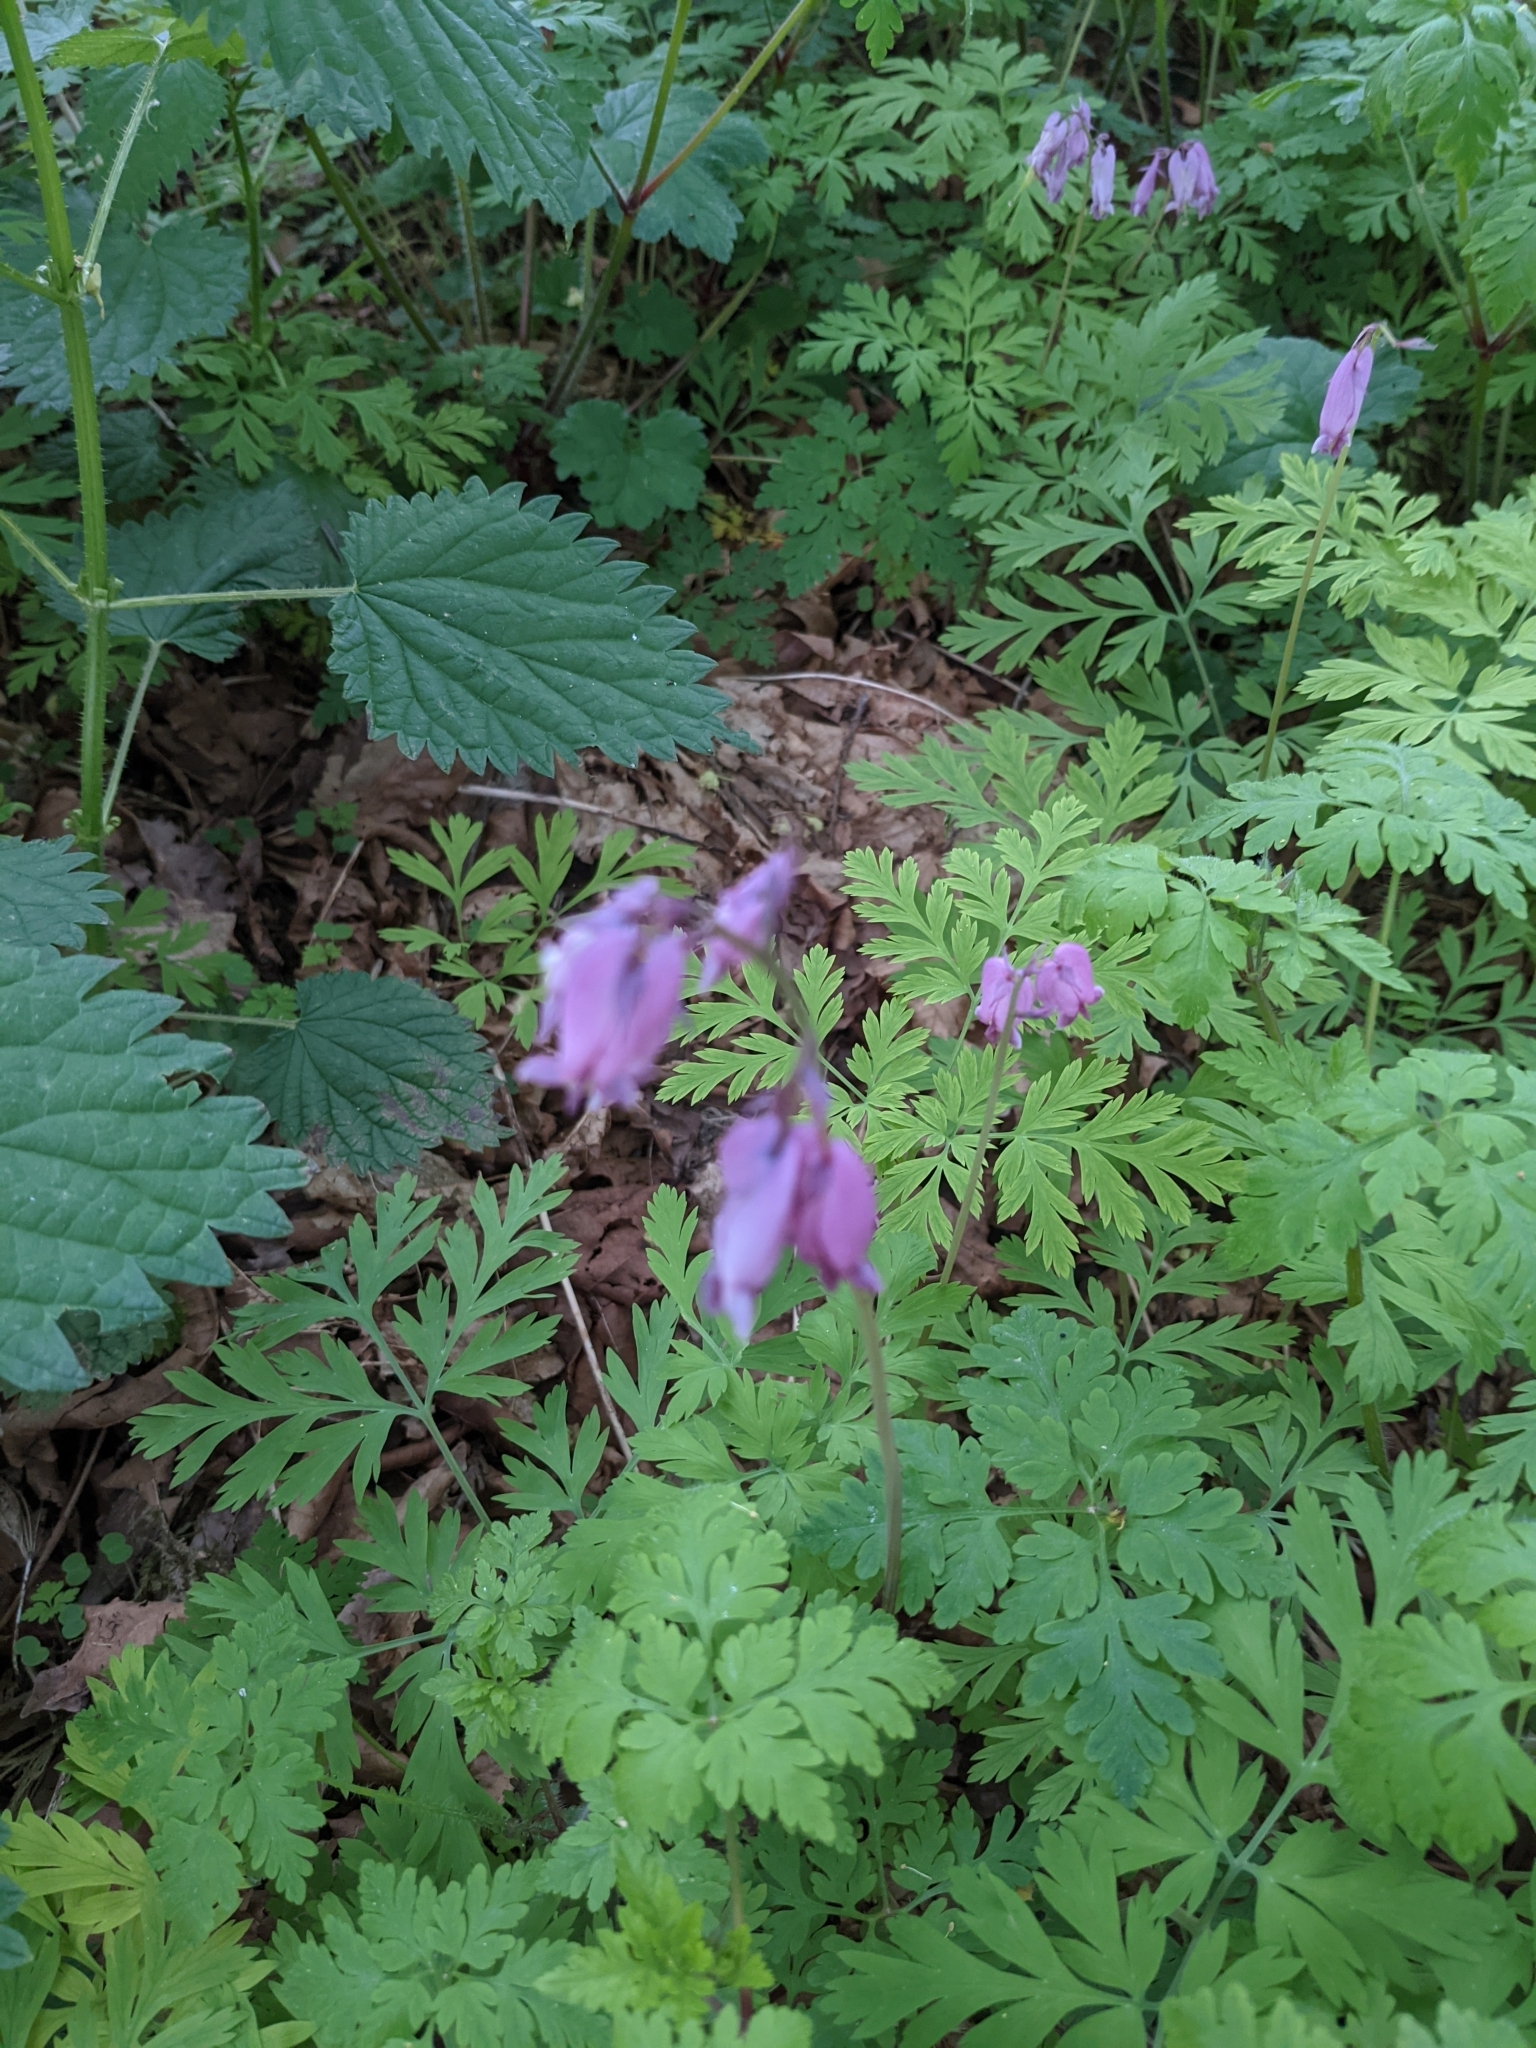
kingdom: Plantae
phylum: Tracheophyta
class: Magnoliopsida
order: Ranunculales
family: Papaveraceae
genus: Dicentra
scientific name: Dicentra formosa
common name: Bleeding-heart
